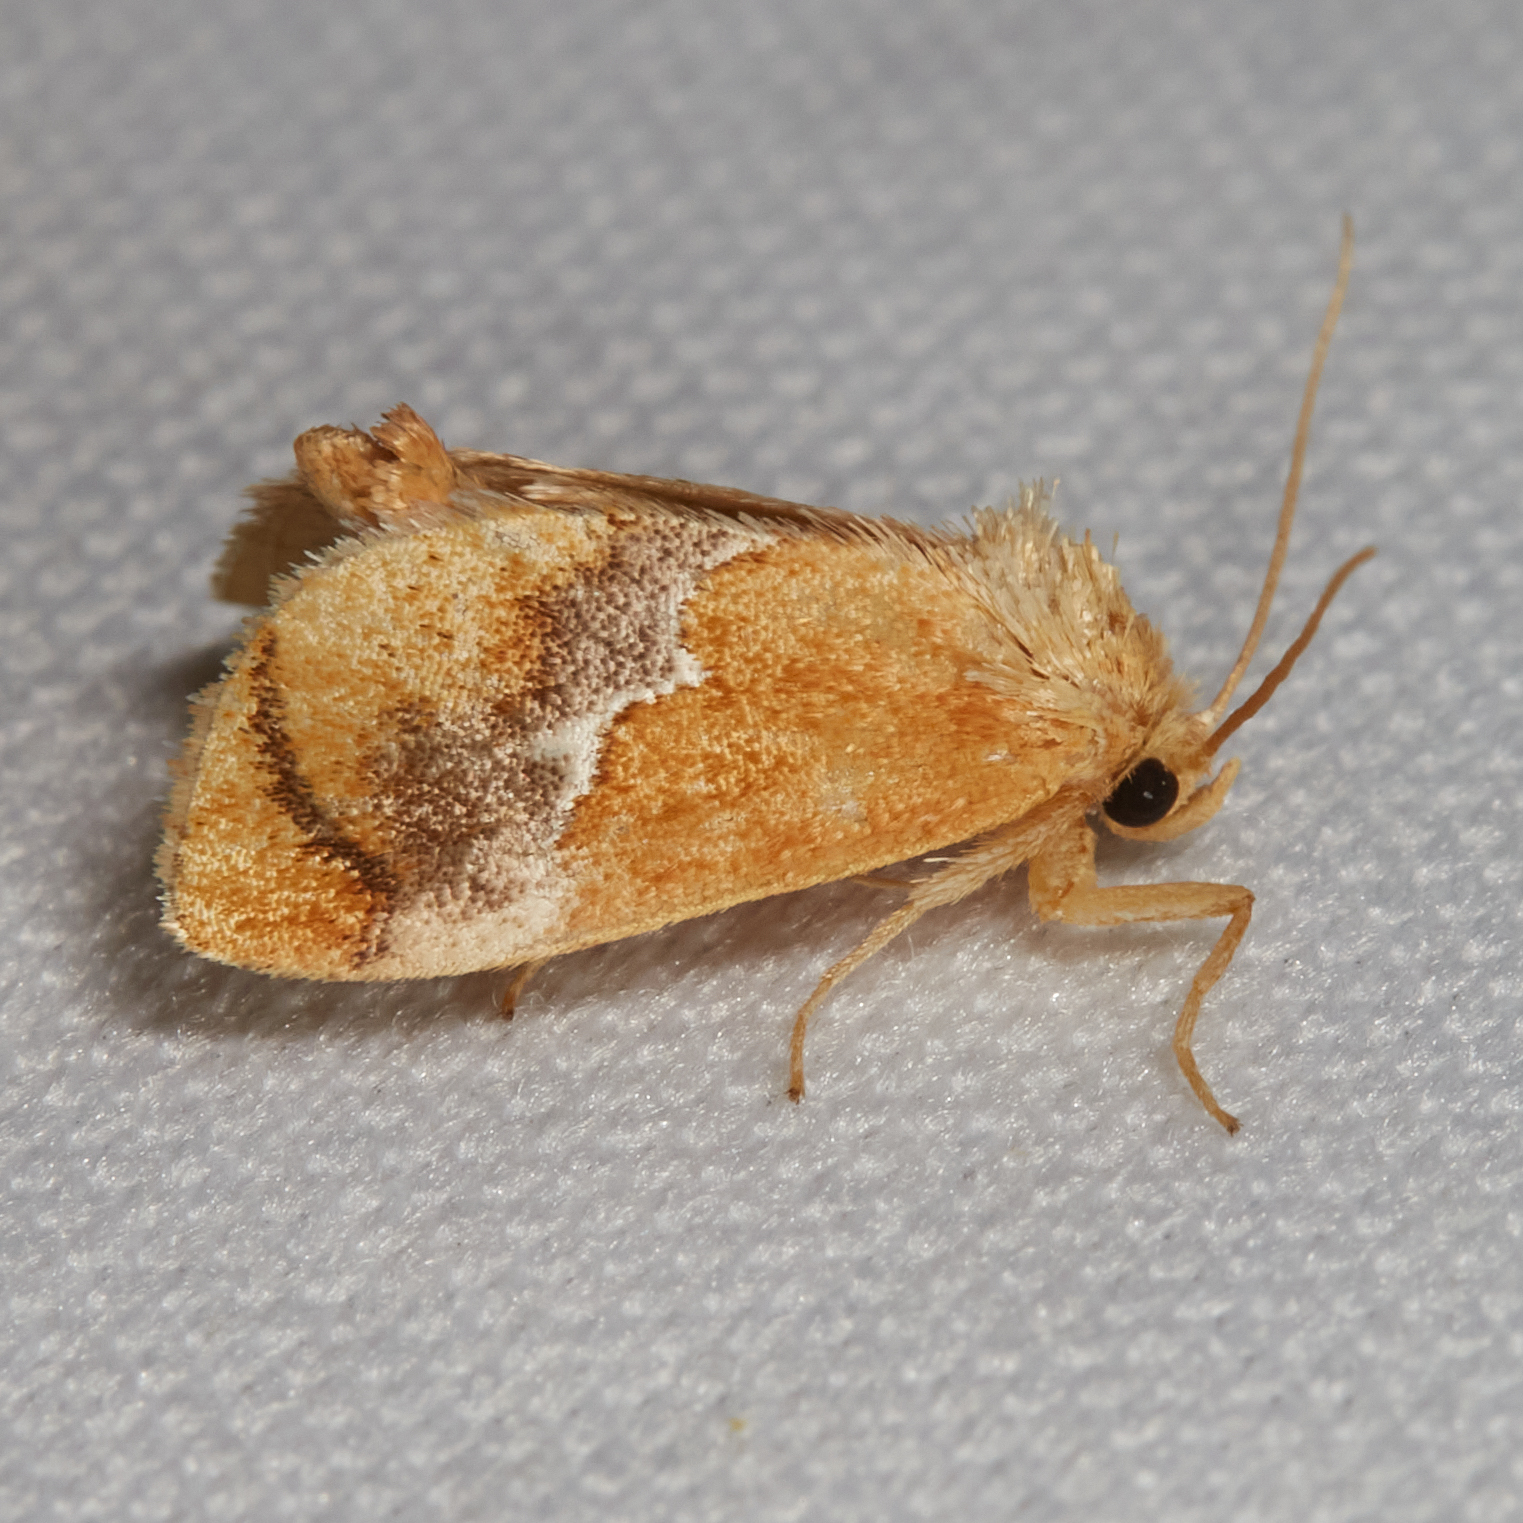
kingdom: Animalia
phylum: Arthropoda
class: Insecta
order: Lepidoptera
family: Limacodidae
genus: Lithacodes
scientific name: Lithacodes fasciola
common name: Yellow-shouldered slug moth
